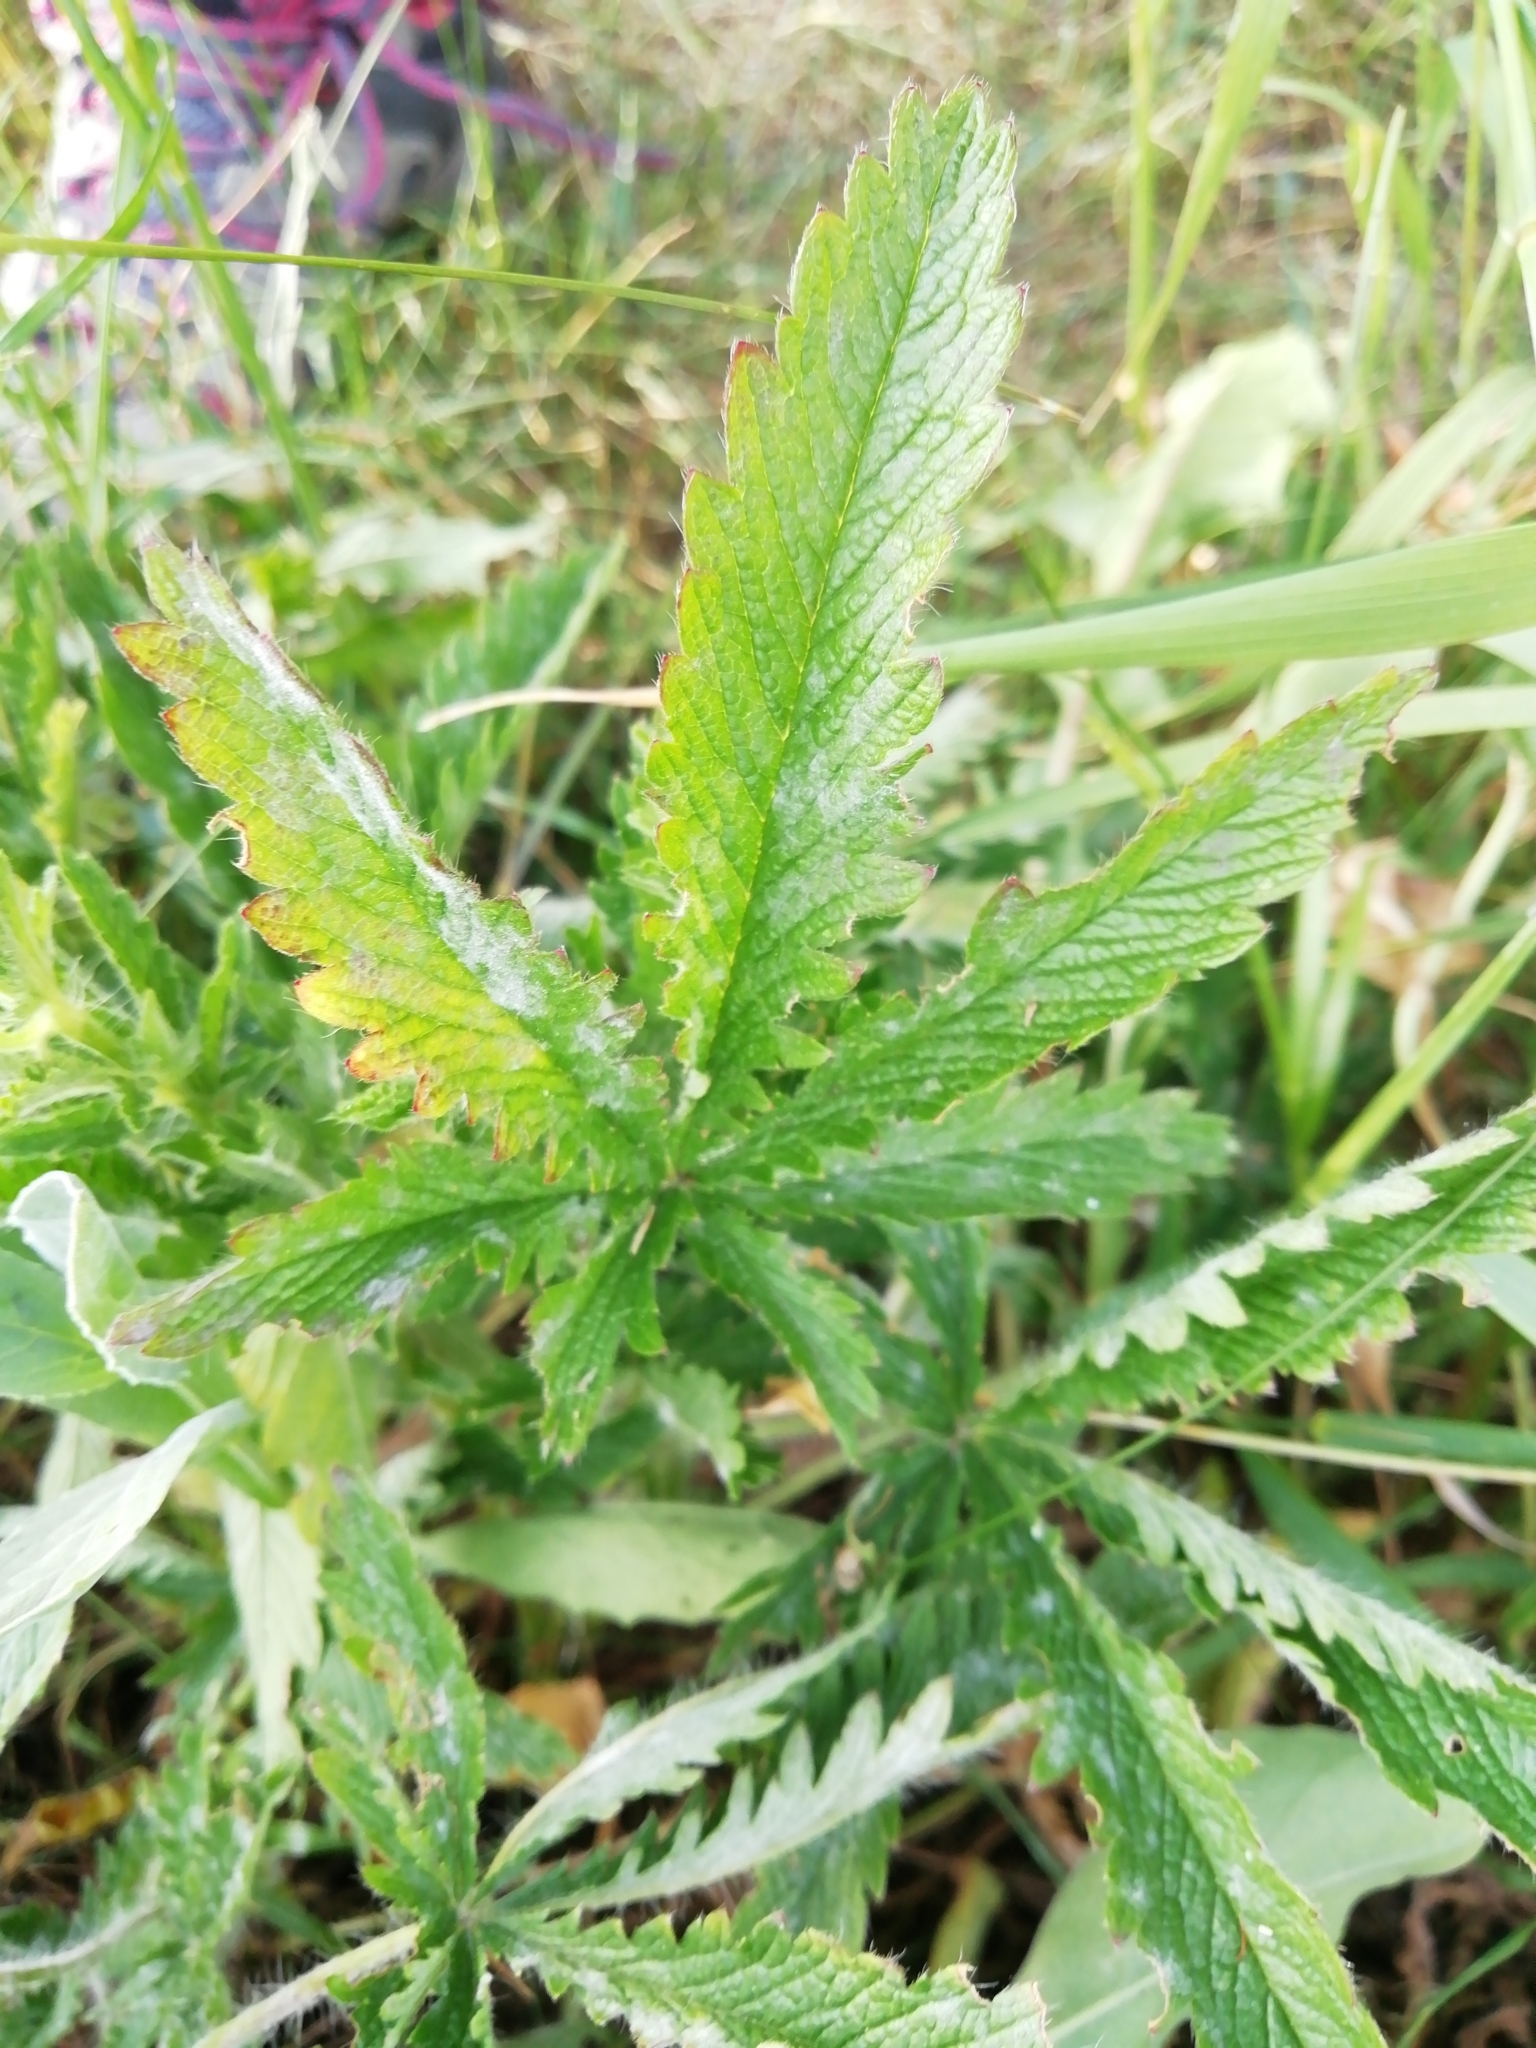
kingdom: Plantae
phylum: Tracheophyta
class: Magnoliopsida
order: Rosales
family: Rosaceae
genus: Potentilla
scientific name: Potentilla recta
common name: Sulphur cinquefoil
